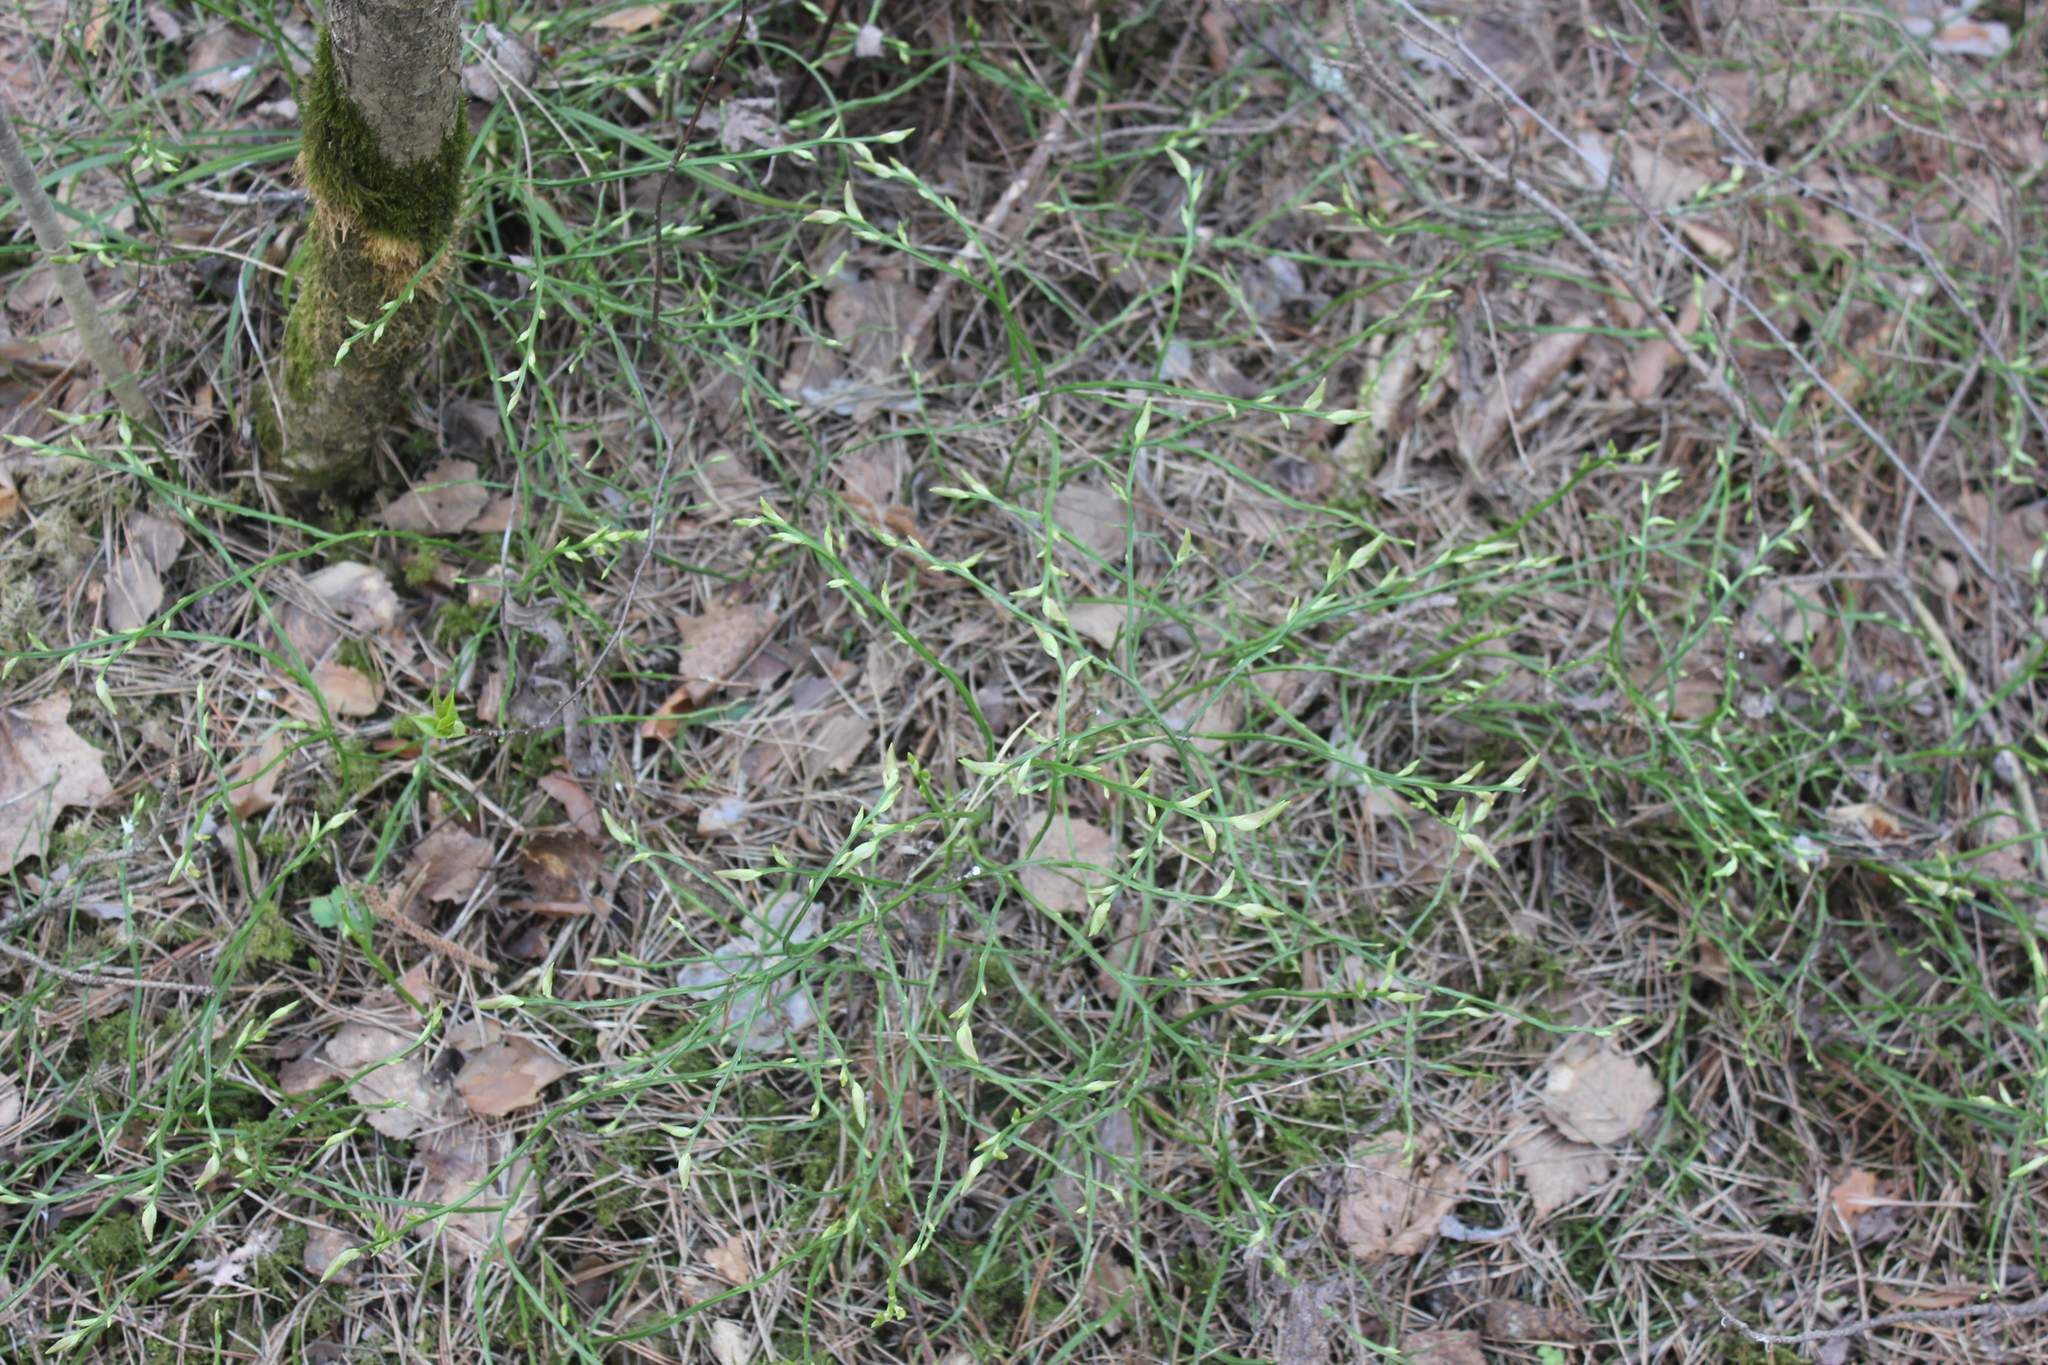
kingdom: Plantae
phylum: Tracheophyta
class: Magnoliopsida
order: Ericales
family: Ericaceae
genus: Vaccinium
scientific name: Vaccinium myrtillus
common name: Bilberry
